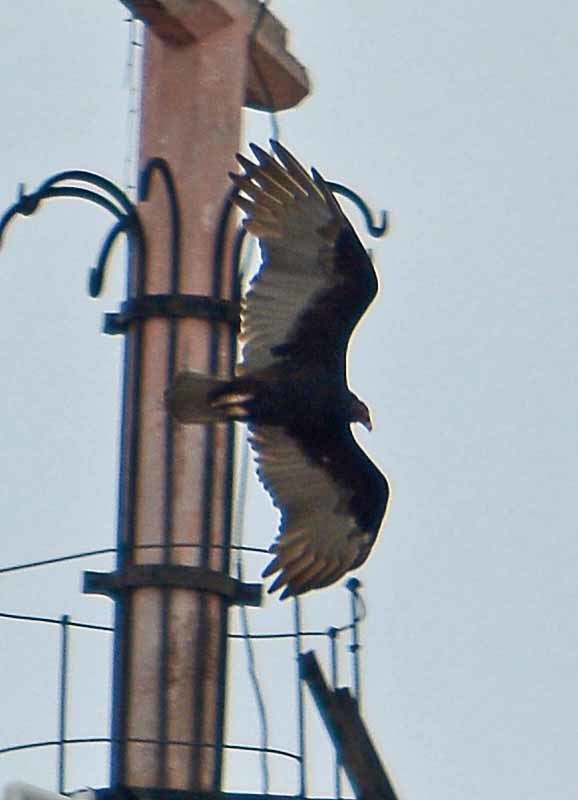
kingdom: Animalia
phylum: Chordata
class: Aves
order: Accipitriformes
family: Cathartidae
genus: Cathartes
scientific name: Cathartes aura
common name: Turkey vulture
